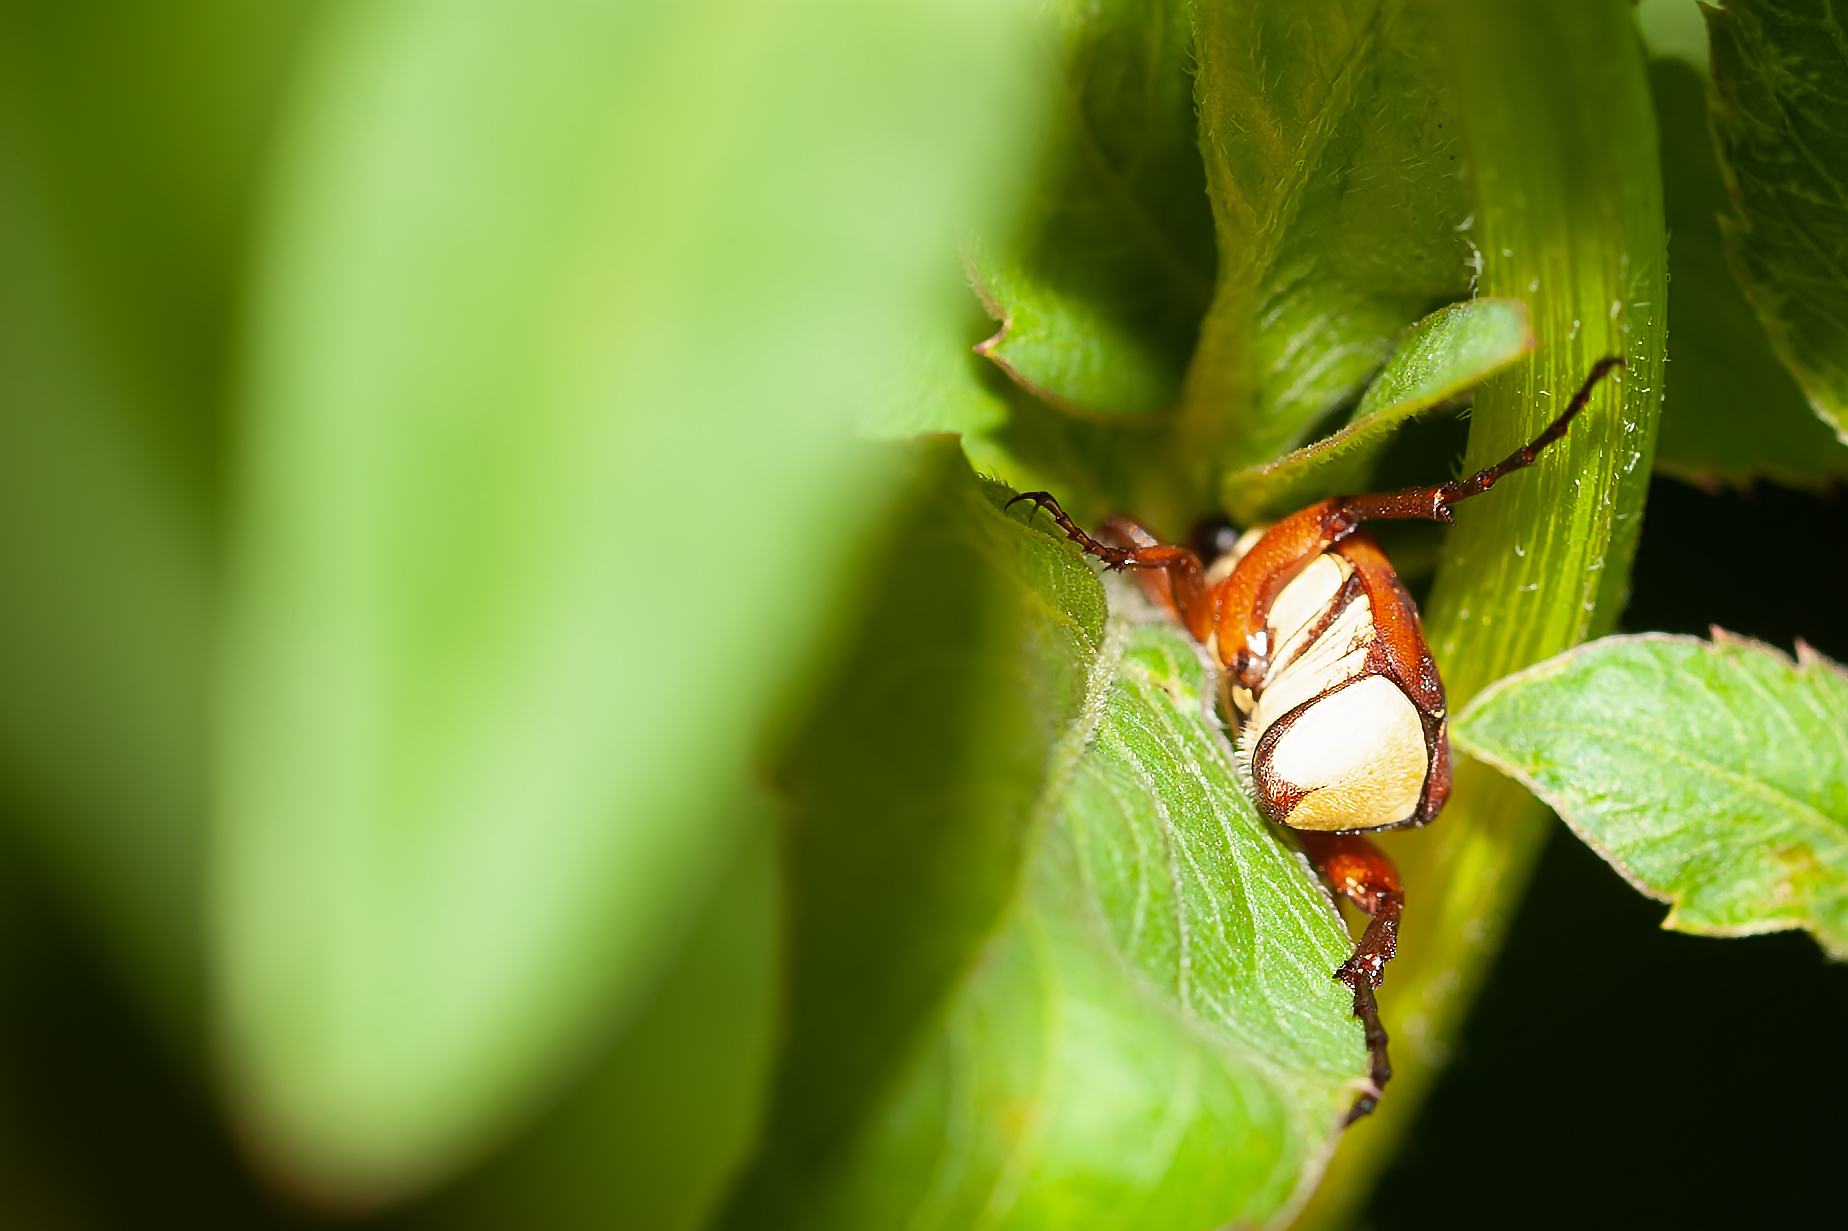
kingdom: Animalia
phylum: Arthropoda
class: Insecta
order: Coleoptera
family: Scarabaeidae
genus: Trigonopeltastes
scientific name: Trigonopeltastes delta
